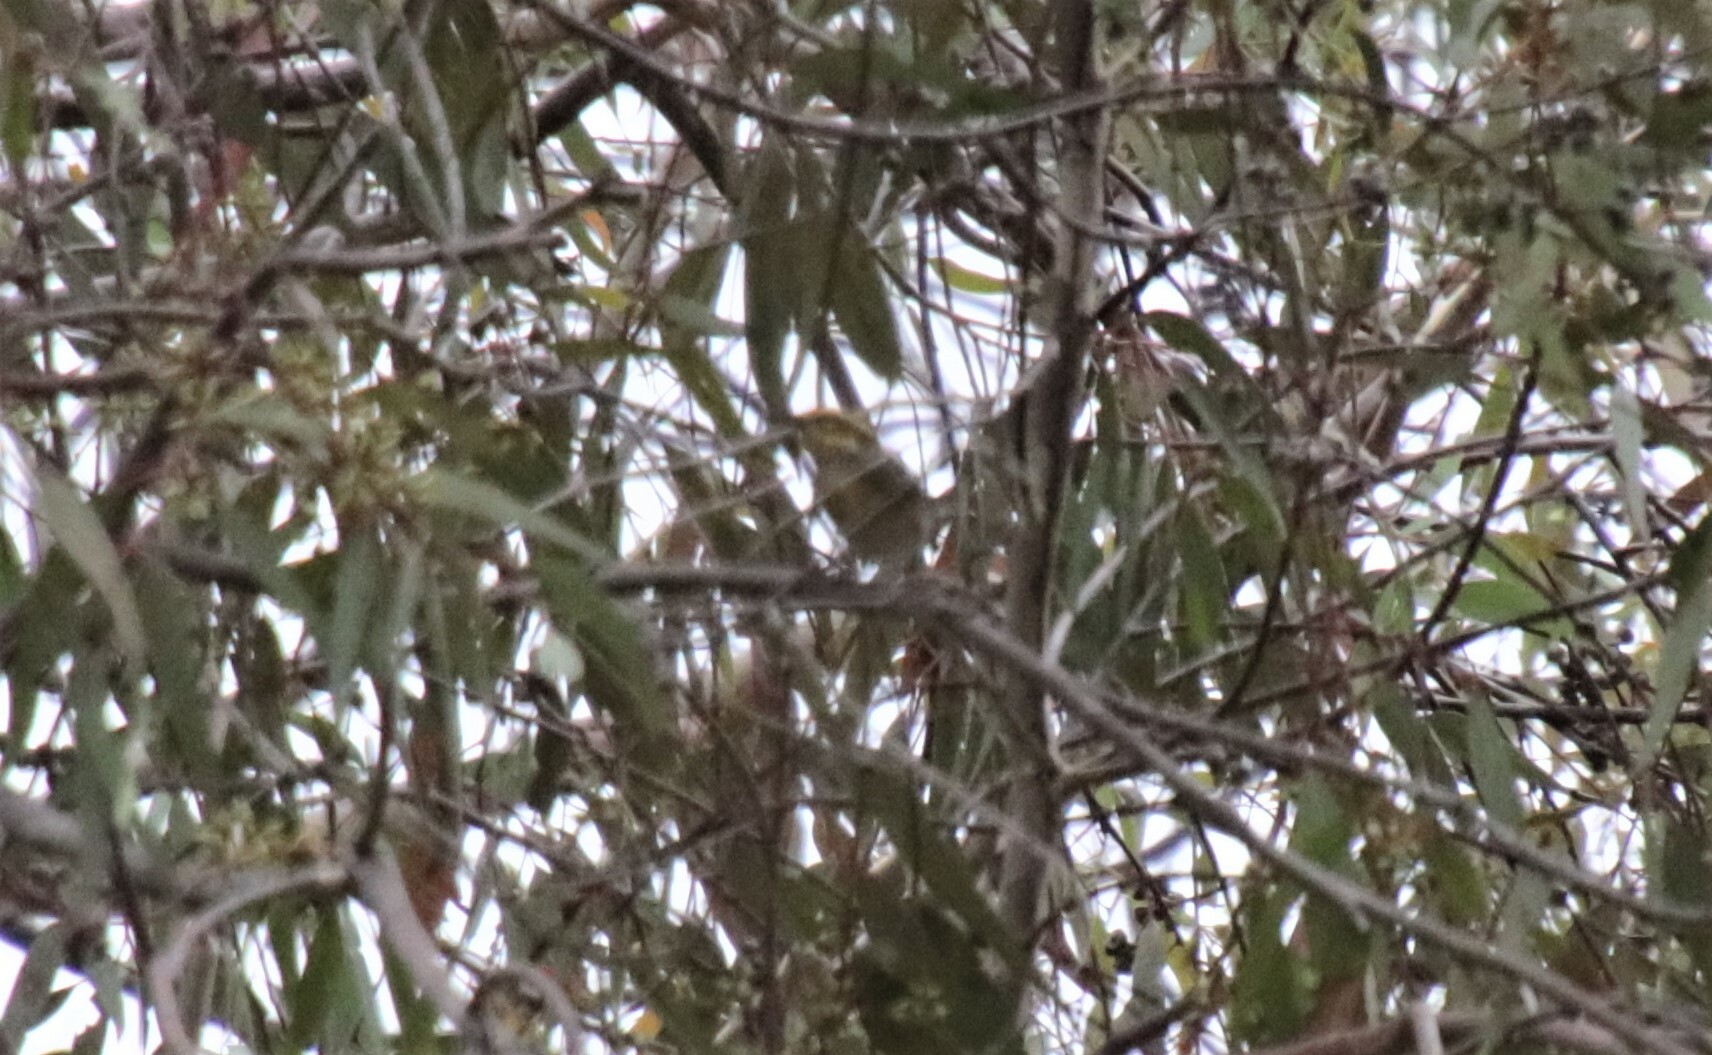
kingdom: Animalia
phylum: Chordata
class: Aves
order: Passeriformes
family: Parulidae
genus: Setophaga
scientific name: Setophaga townsendi
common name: Townsend's warbler
